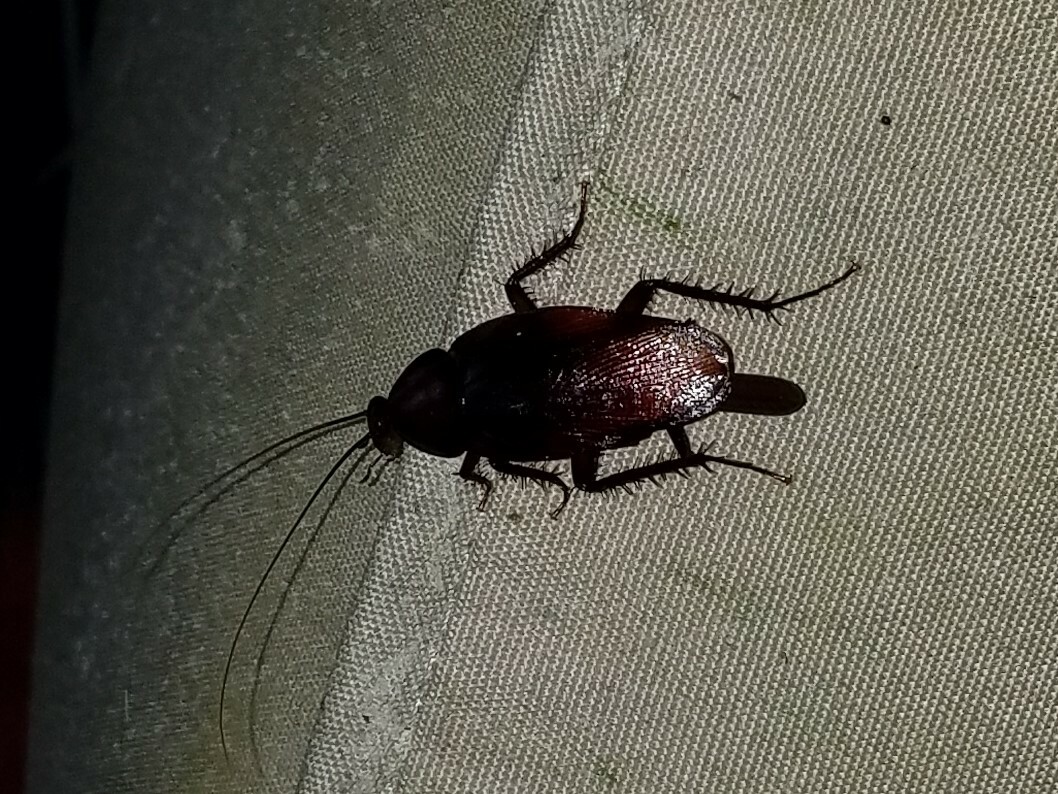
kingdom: Animalia
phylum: Arthropoda
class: Insecta
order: Blattodea
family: Blattidae
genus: Periplaneta
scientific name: Periplaneta fuliginosa
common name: Smokeybrown cockroad
